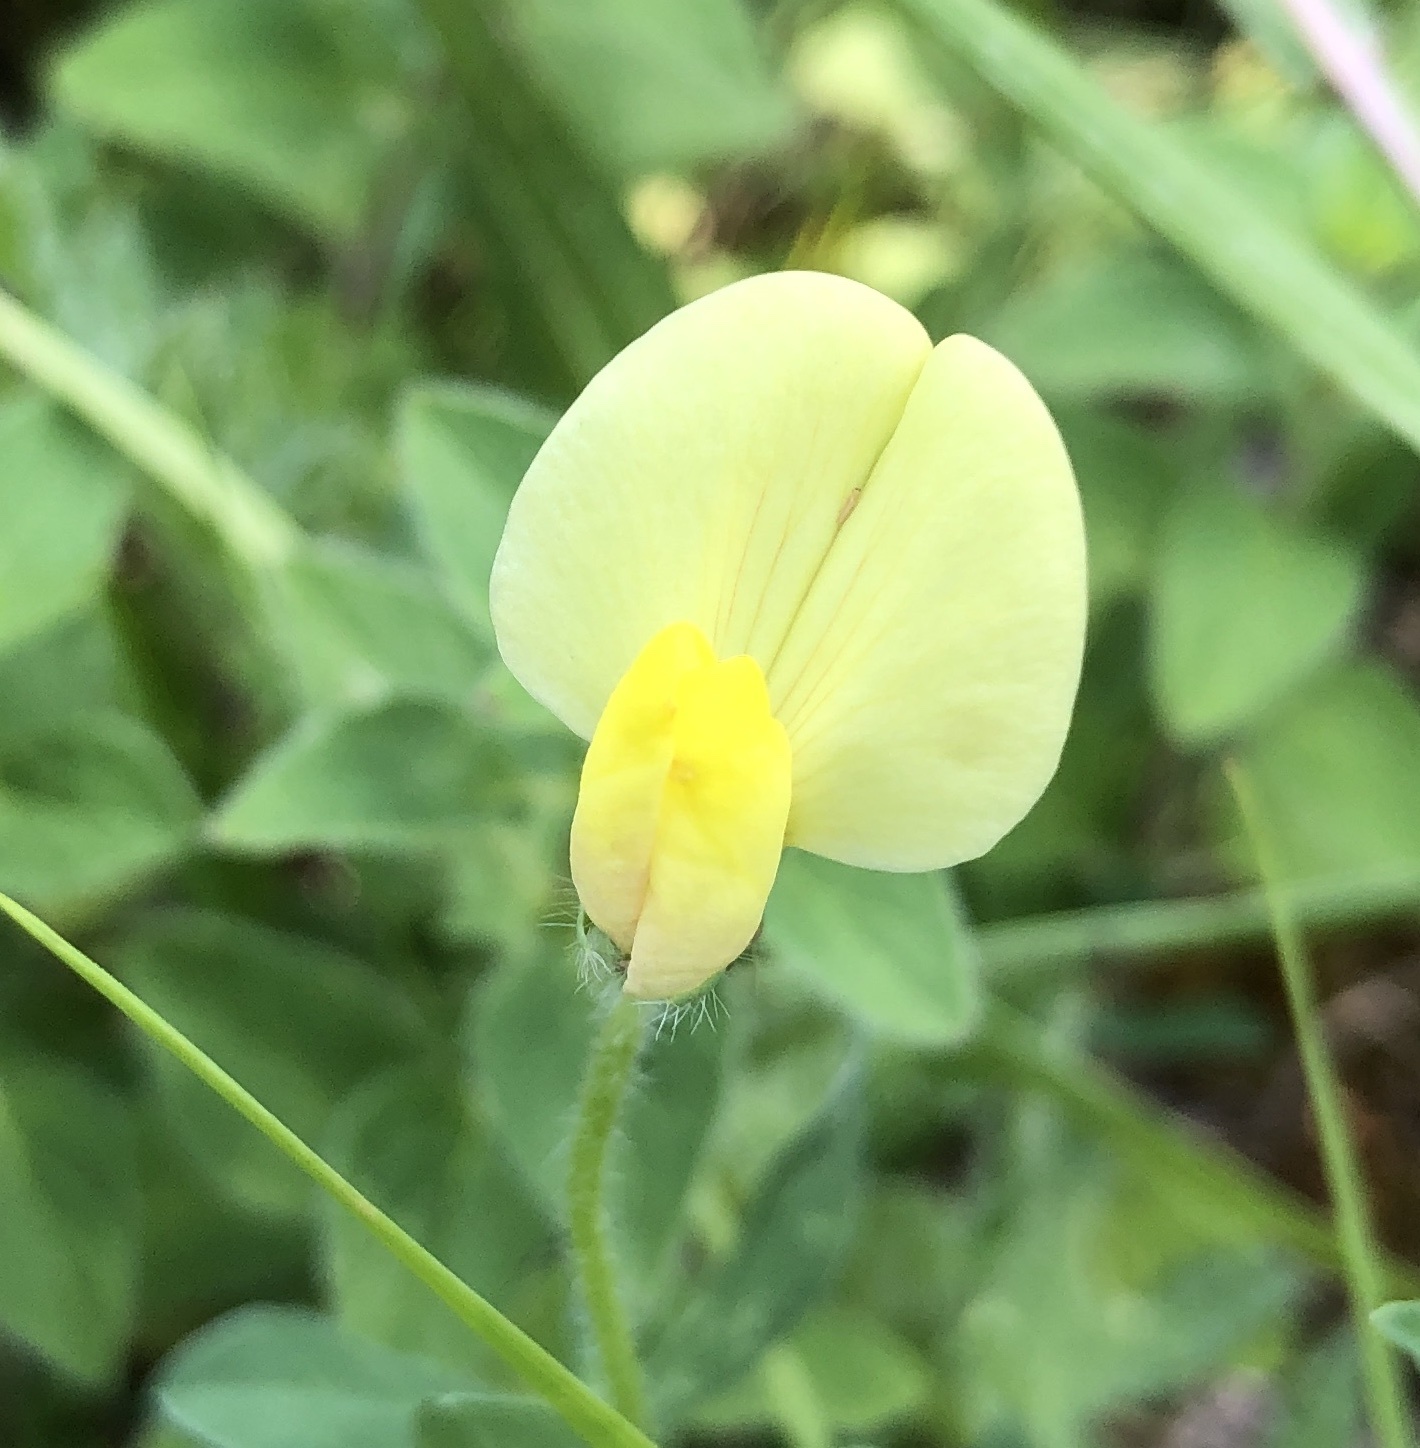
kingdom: Plantae
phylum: Tracheophyta
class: Magnoliopsida
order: Fabales
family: Fabaceae
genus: Lotus
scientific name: Lotus maritimus
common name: Dragon's-teeth
